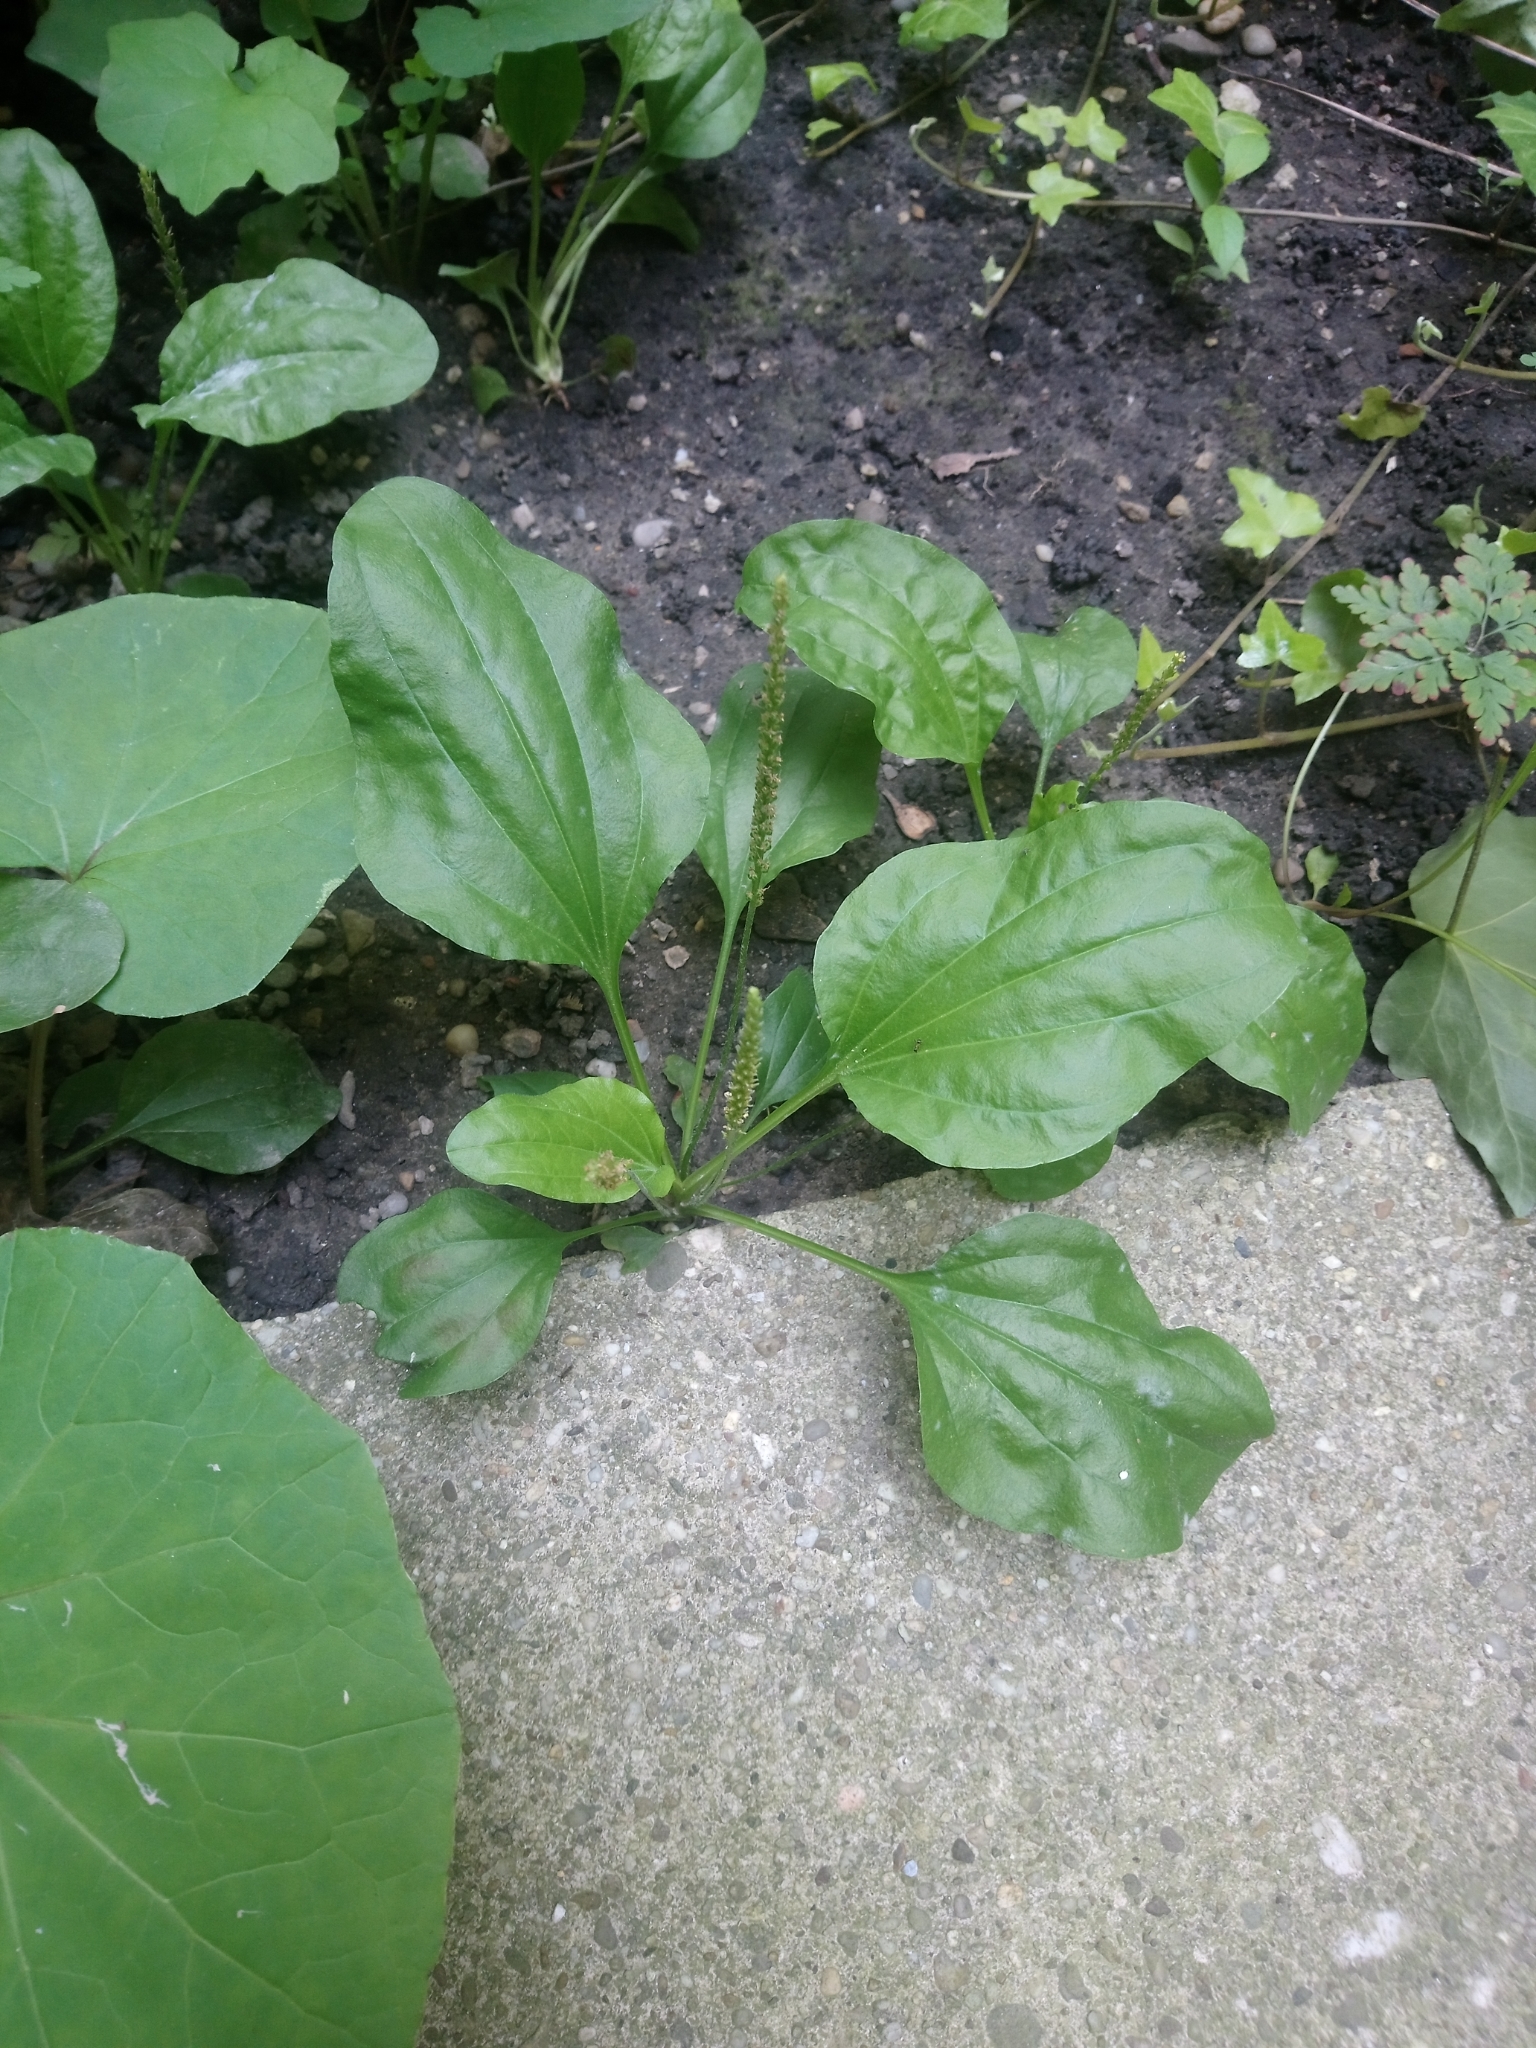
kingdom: Plantae
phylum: Tracheophyta
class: Magnoliopsida
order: Lamiales
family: Plantaginaceae
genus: Plantago
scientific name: Plantago major
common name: Common plantain
